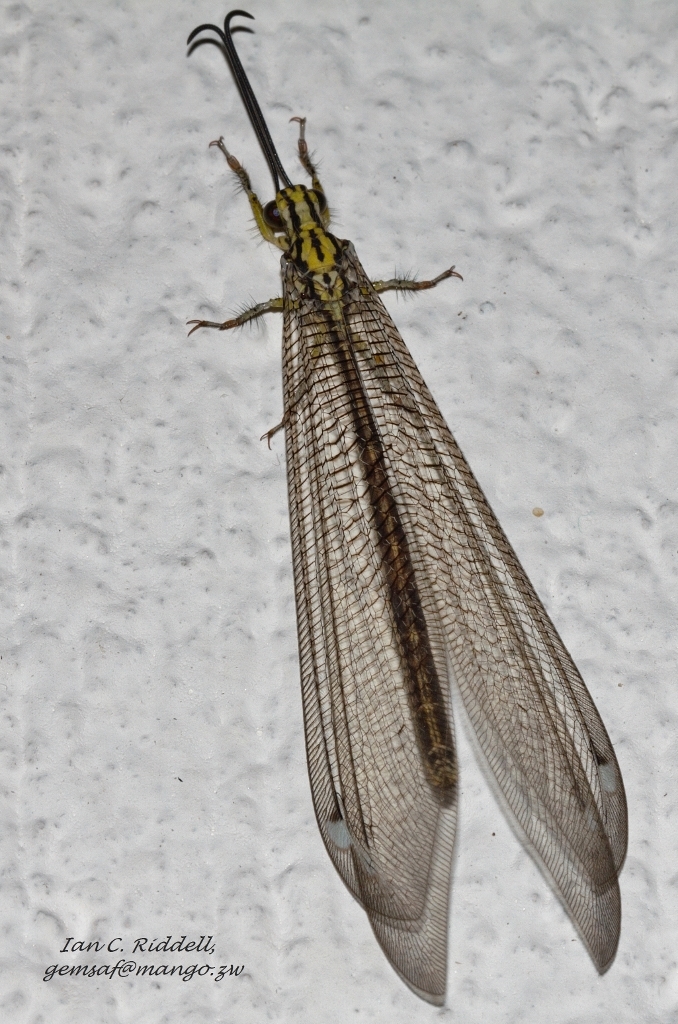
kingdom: Animalia
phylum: Arthropoda
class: Insecta
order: Neuroptera
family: Myrmeleontidae
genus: Banyutus
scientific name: Banyutus lethalis
